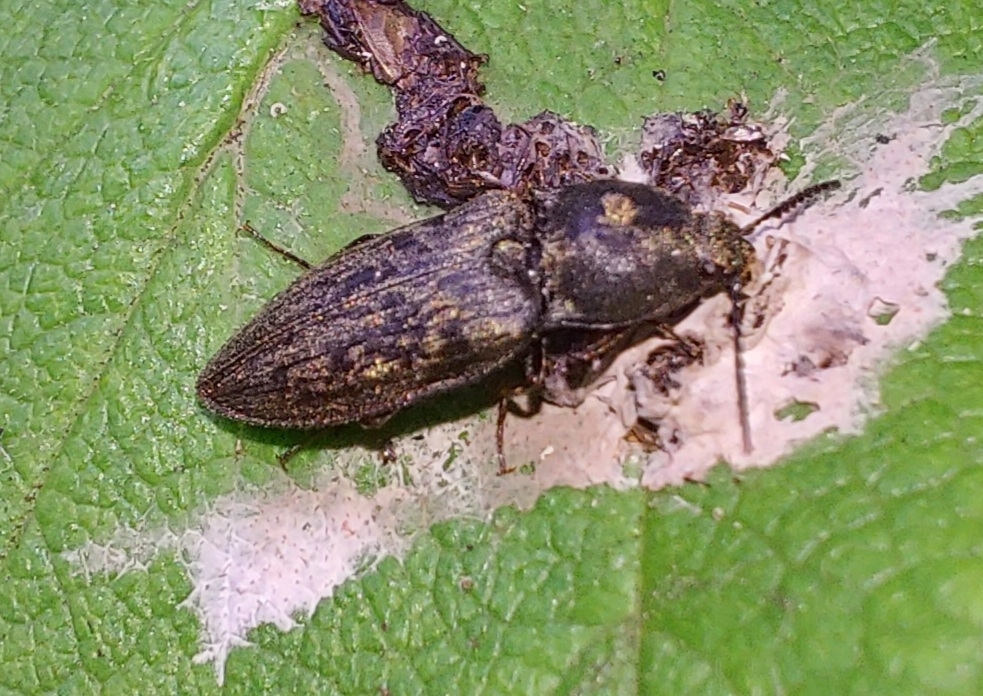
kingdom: Animalia
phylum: Arthropoda
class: Insecta
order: Coleoptera
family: Elateridae
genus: Prosternon
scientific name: Prosternon tessellatum
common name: Chequered click beetle
